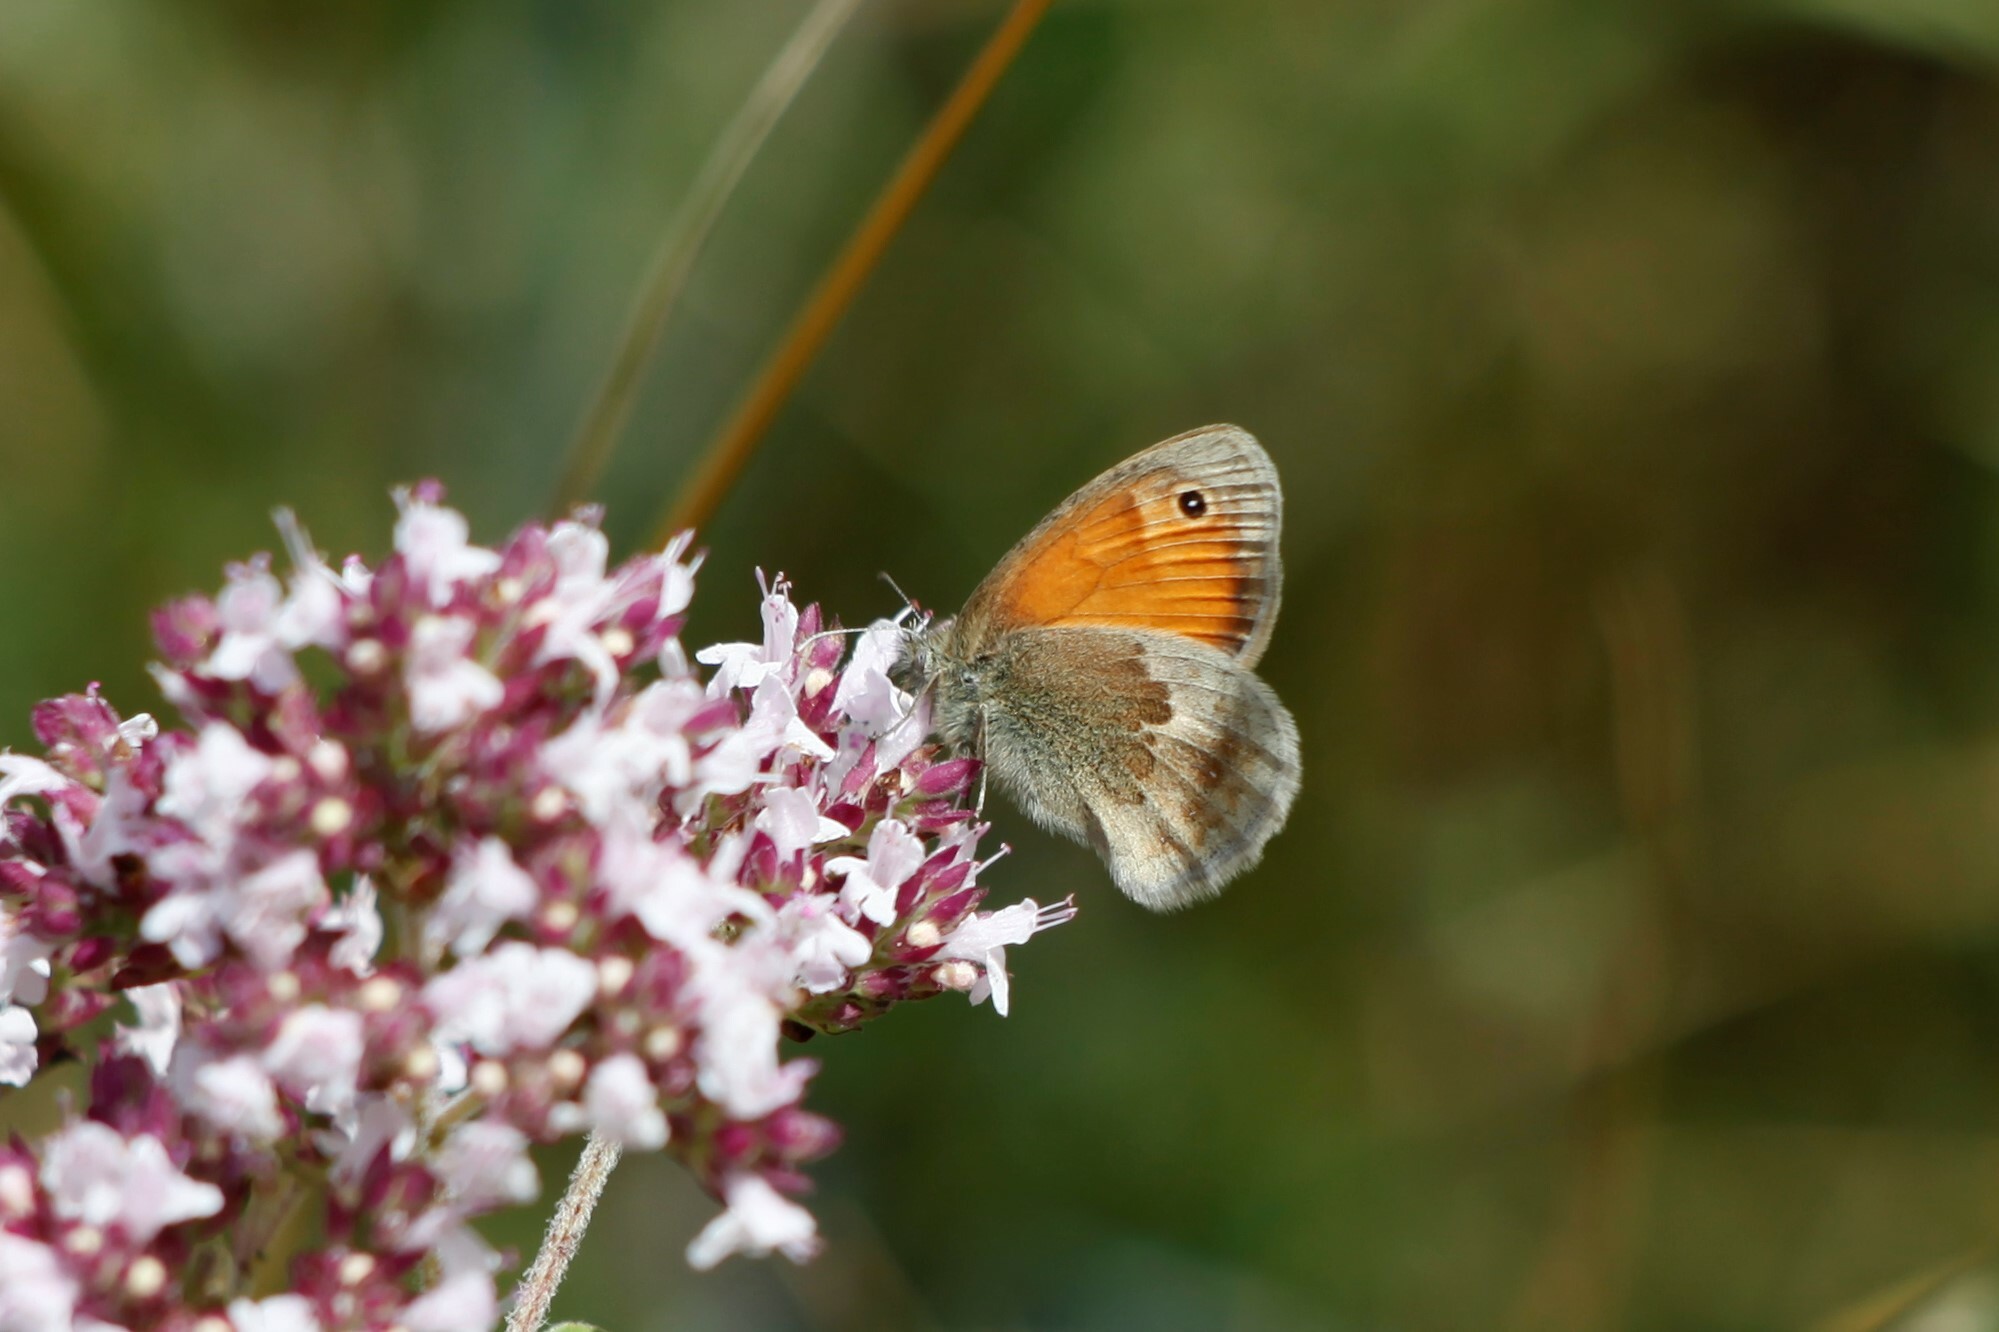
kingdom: Animalia
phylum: Arthropoda
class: Insecta
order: Lepidoptera
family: Nymphalidae
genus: Coenonympha
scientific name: Coenonympha pamphilus
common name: Small heath
